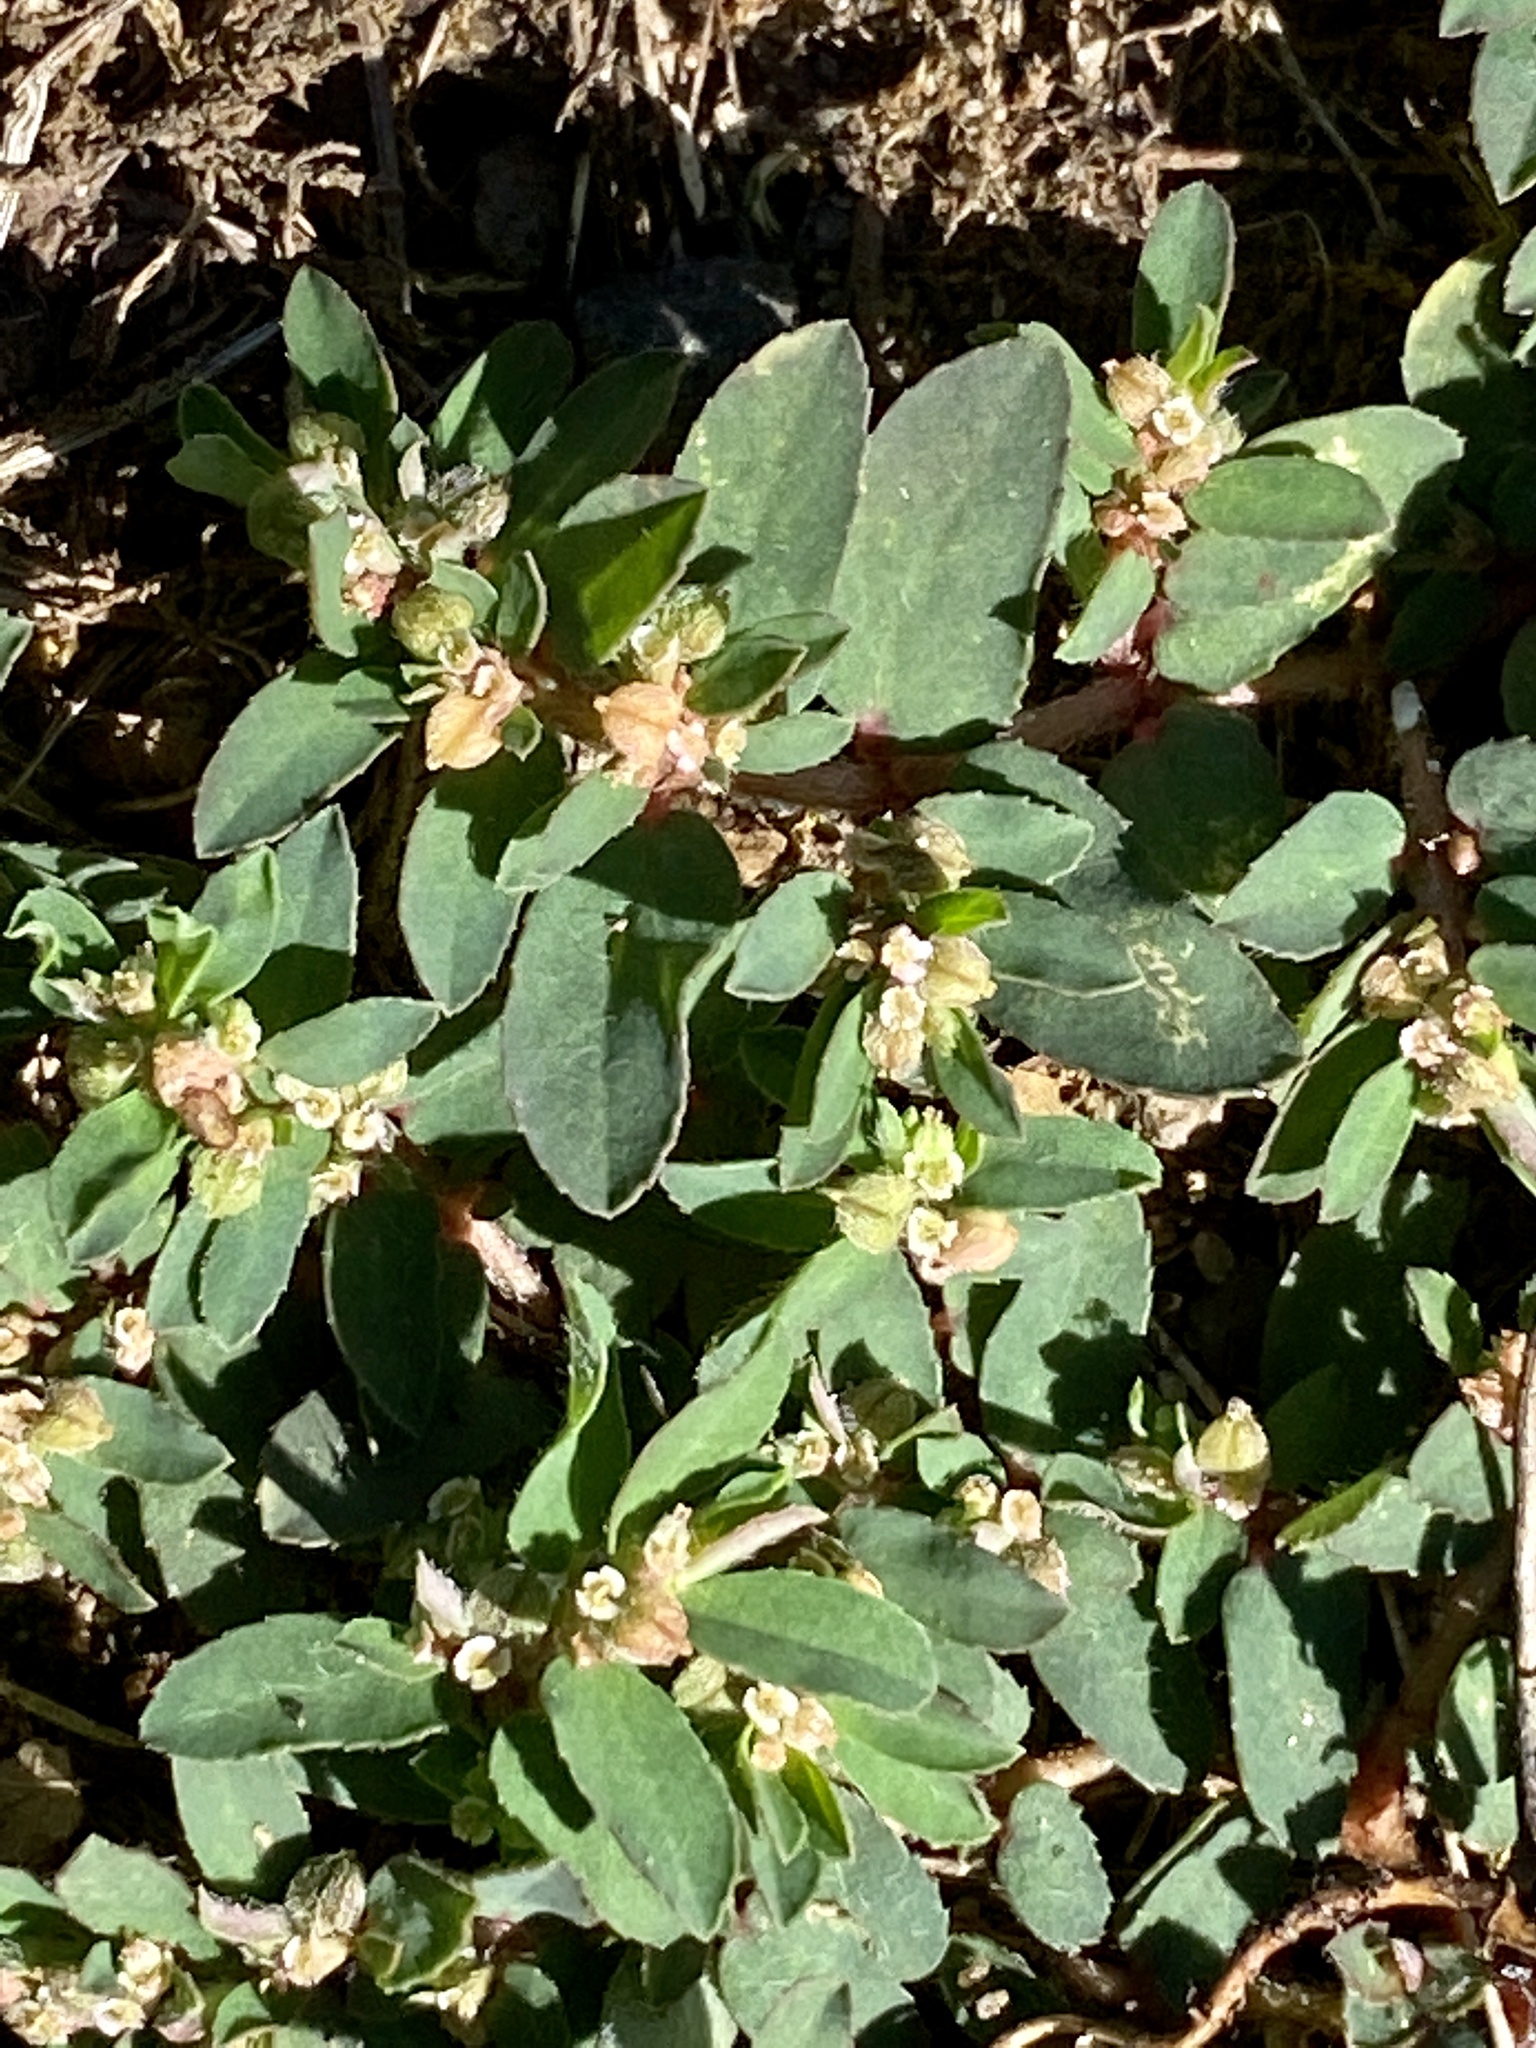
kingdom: Plantae
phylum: Tracheophyta
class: Magnoliopsida
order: Malpighiales
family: Euphorbiaceae
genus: Euphorbia
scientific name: Euphorbia maculata
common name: Spotted spurge
